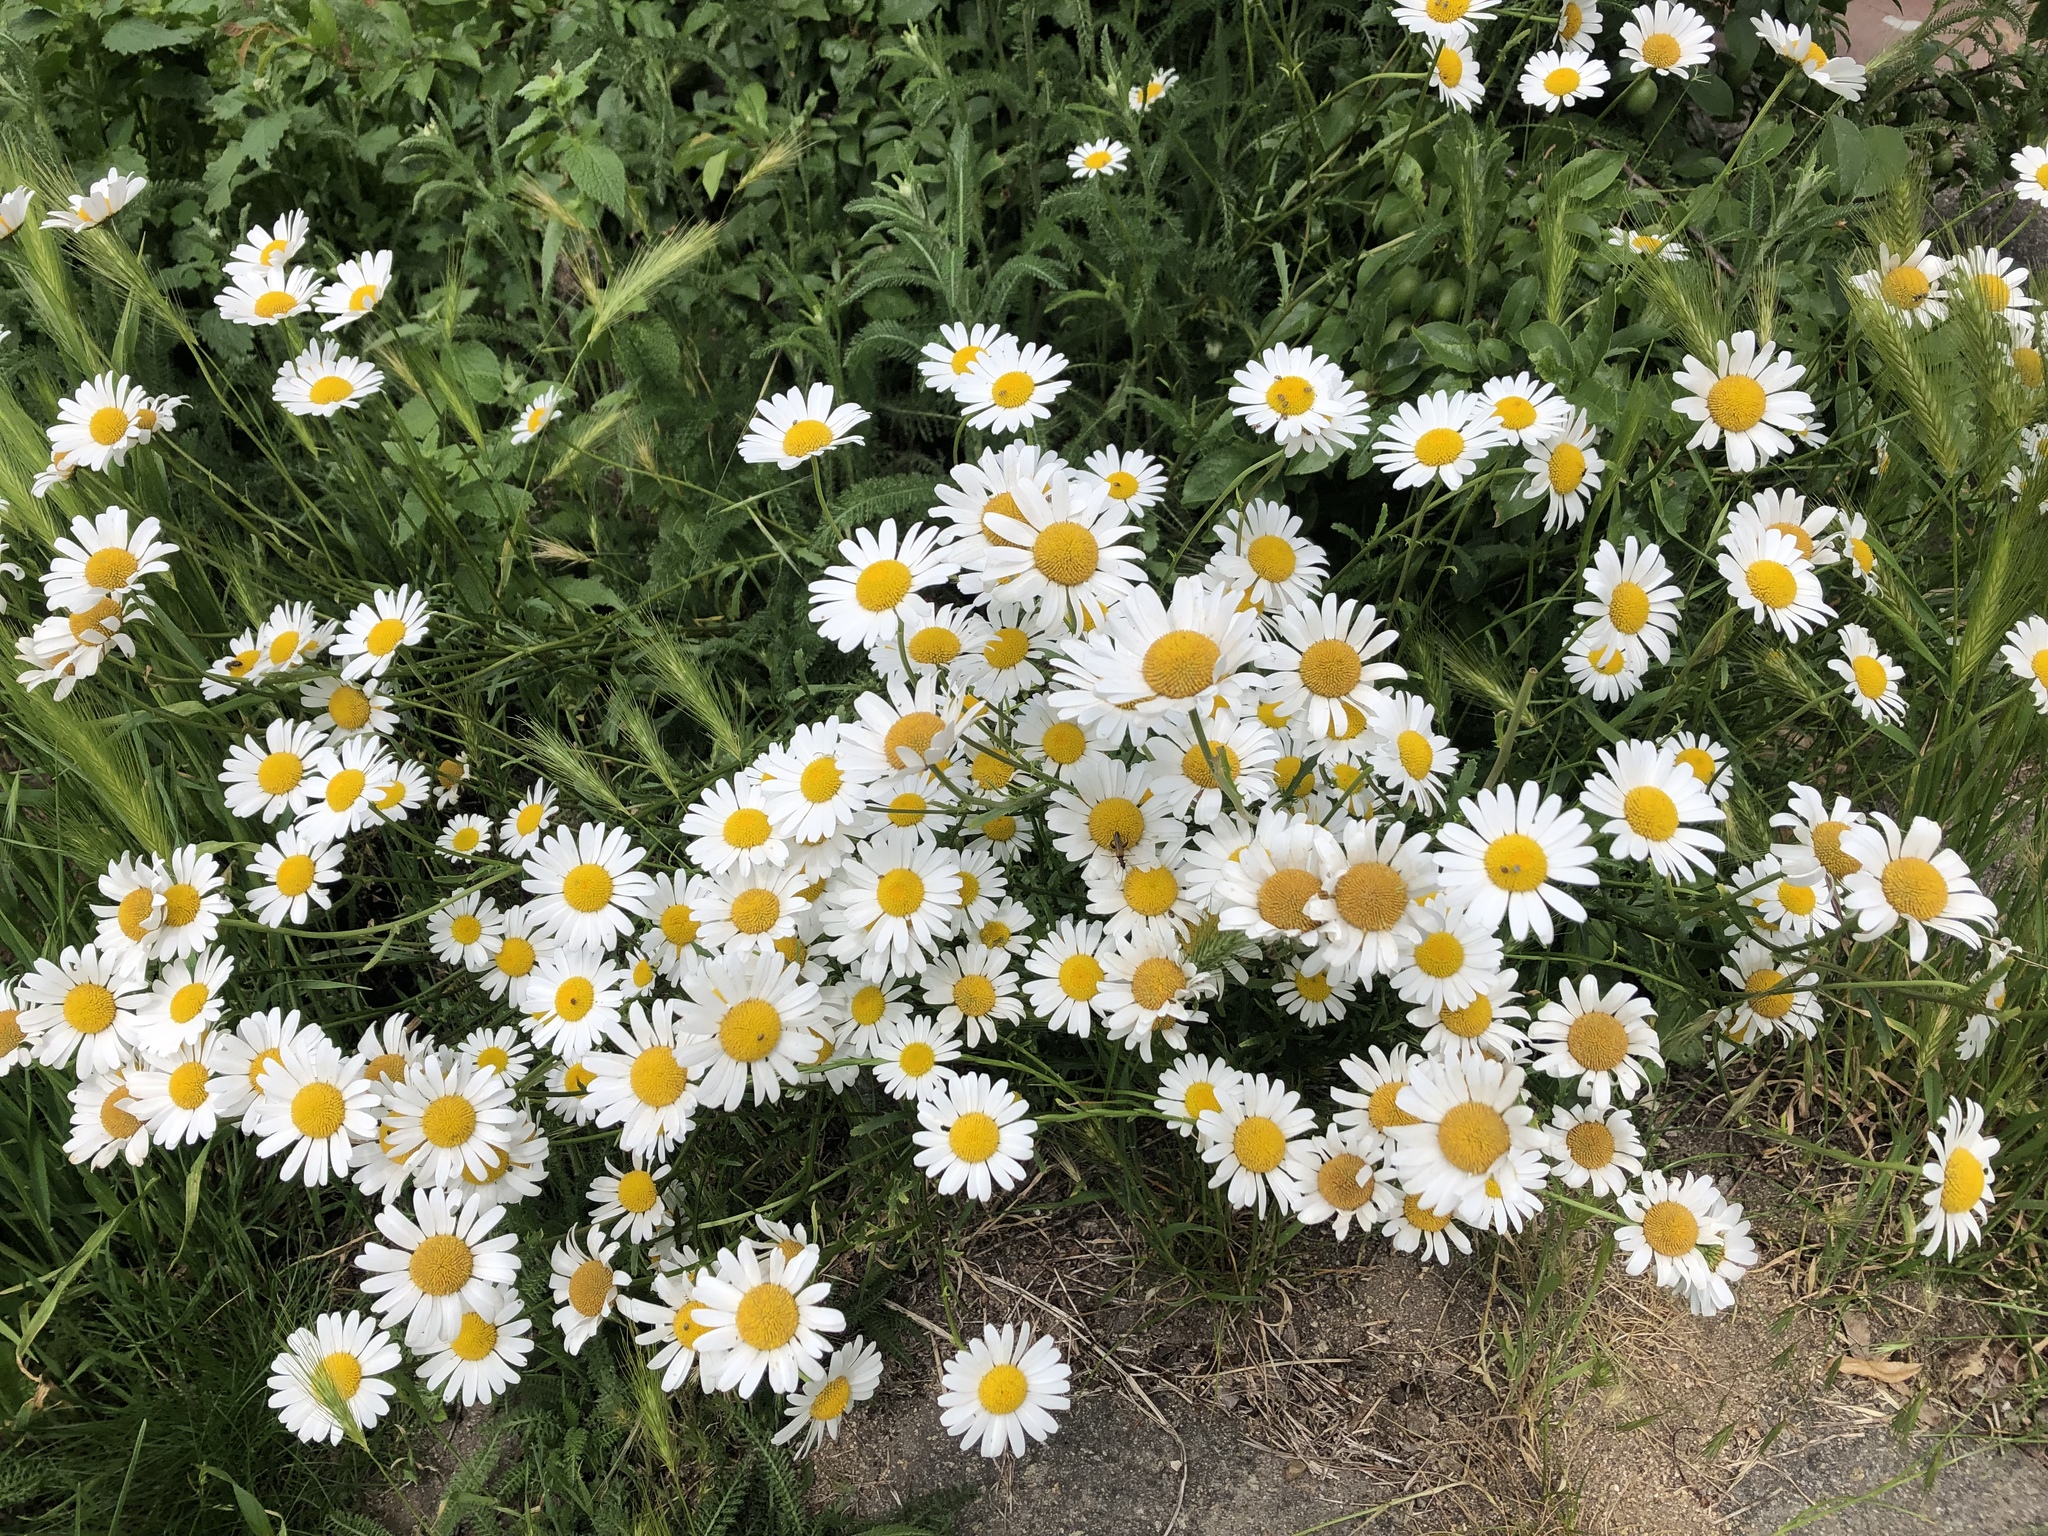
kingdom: Plantae
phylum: Tracheophyta
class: Magnoliopsida
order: Asterales
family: Asteraceae
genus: Leucanthemum
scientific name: Leucanthemum vulgare
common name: Oxeye daisy
